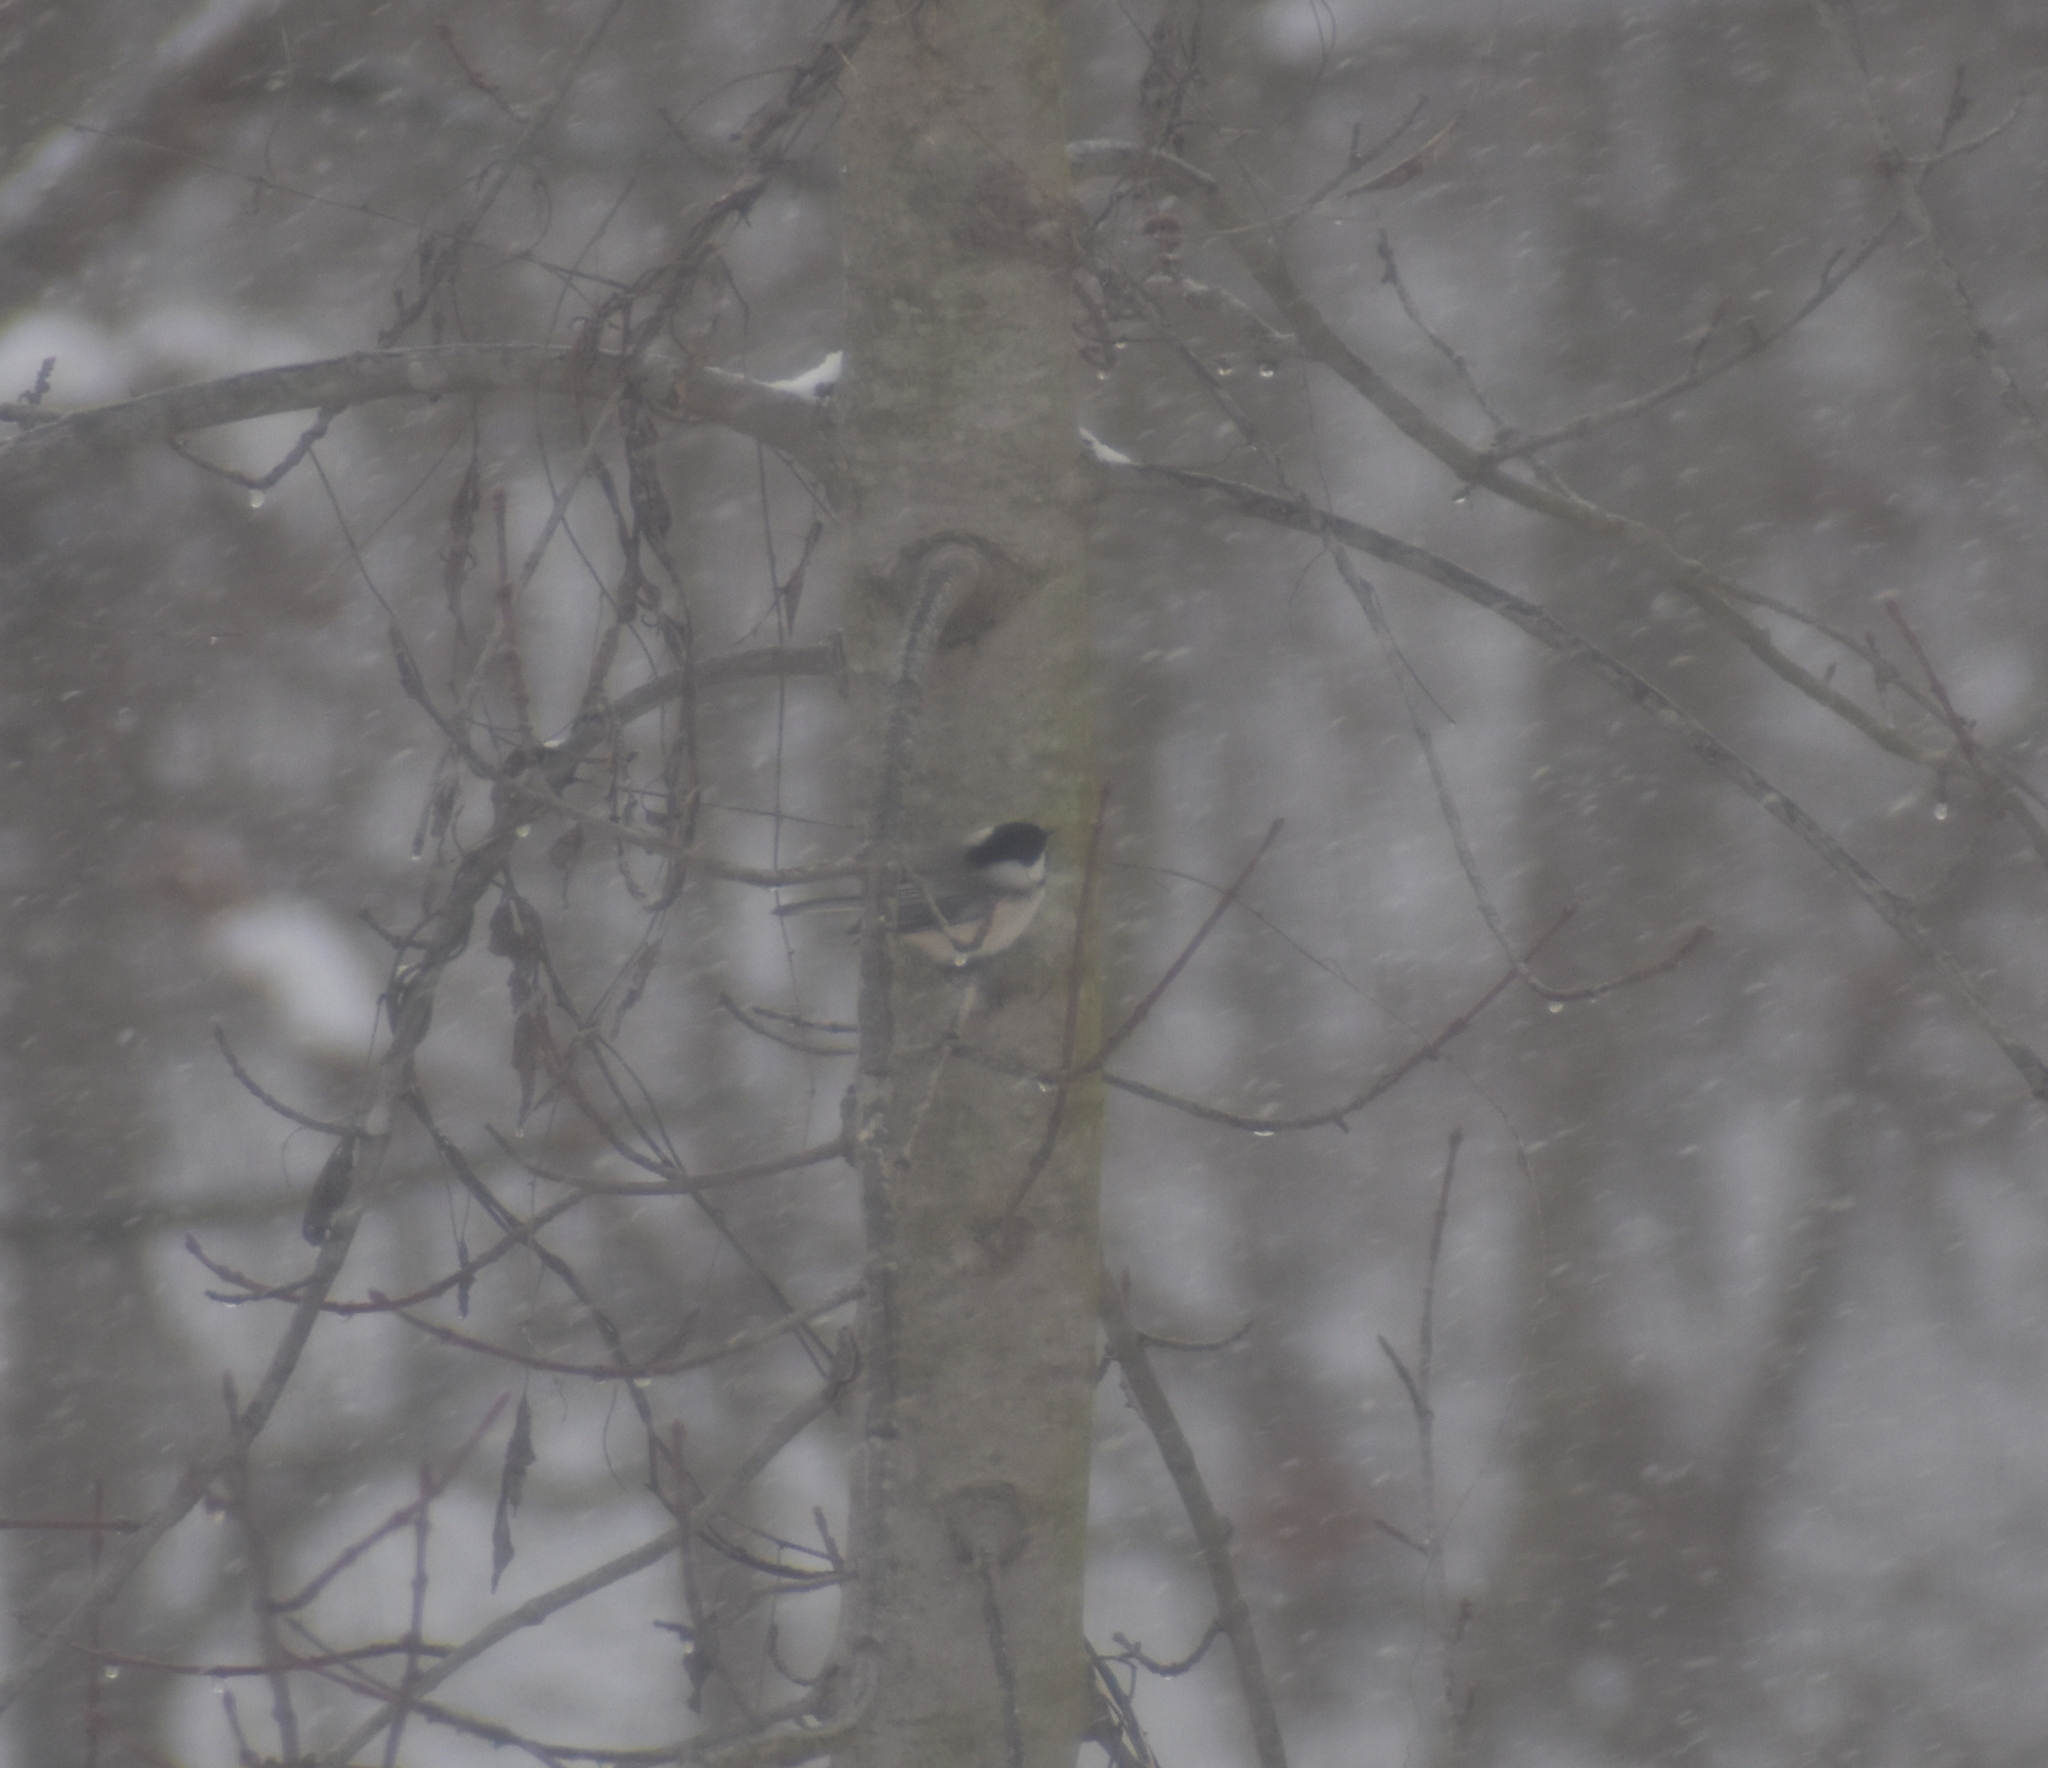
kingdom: Animalia
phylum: Chordata
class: Aves
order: Passeriformes
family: Paridae
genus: Poecile
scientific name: Poecile carolinensis
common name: Carolina chickadee
